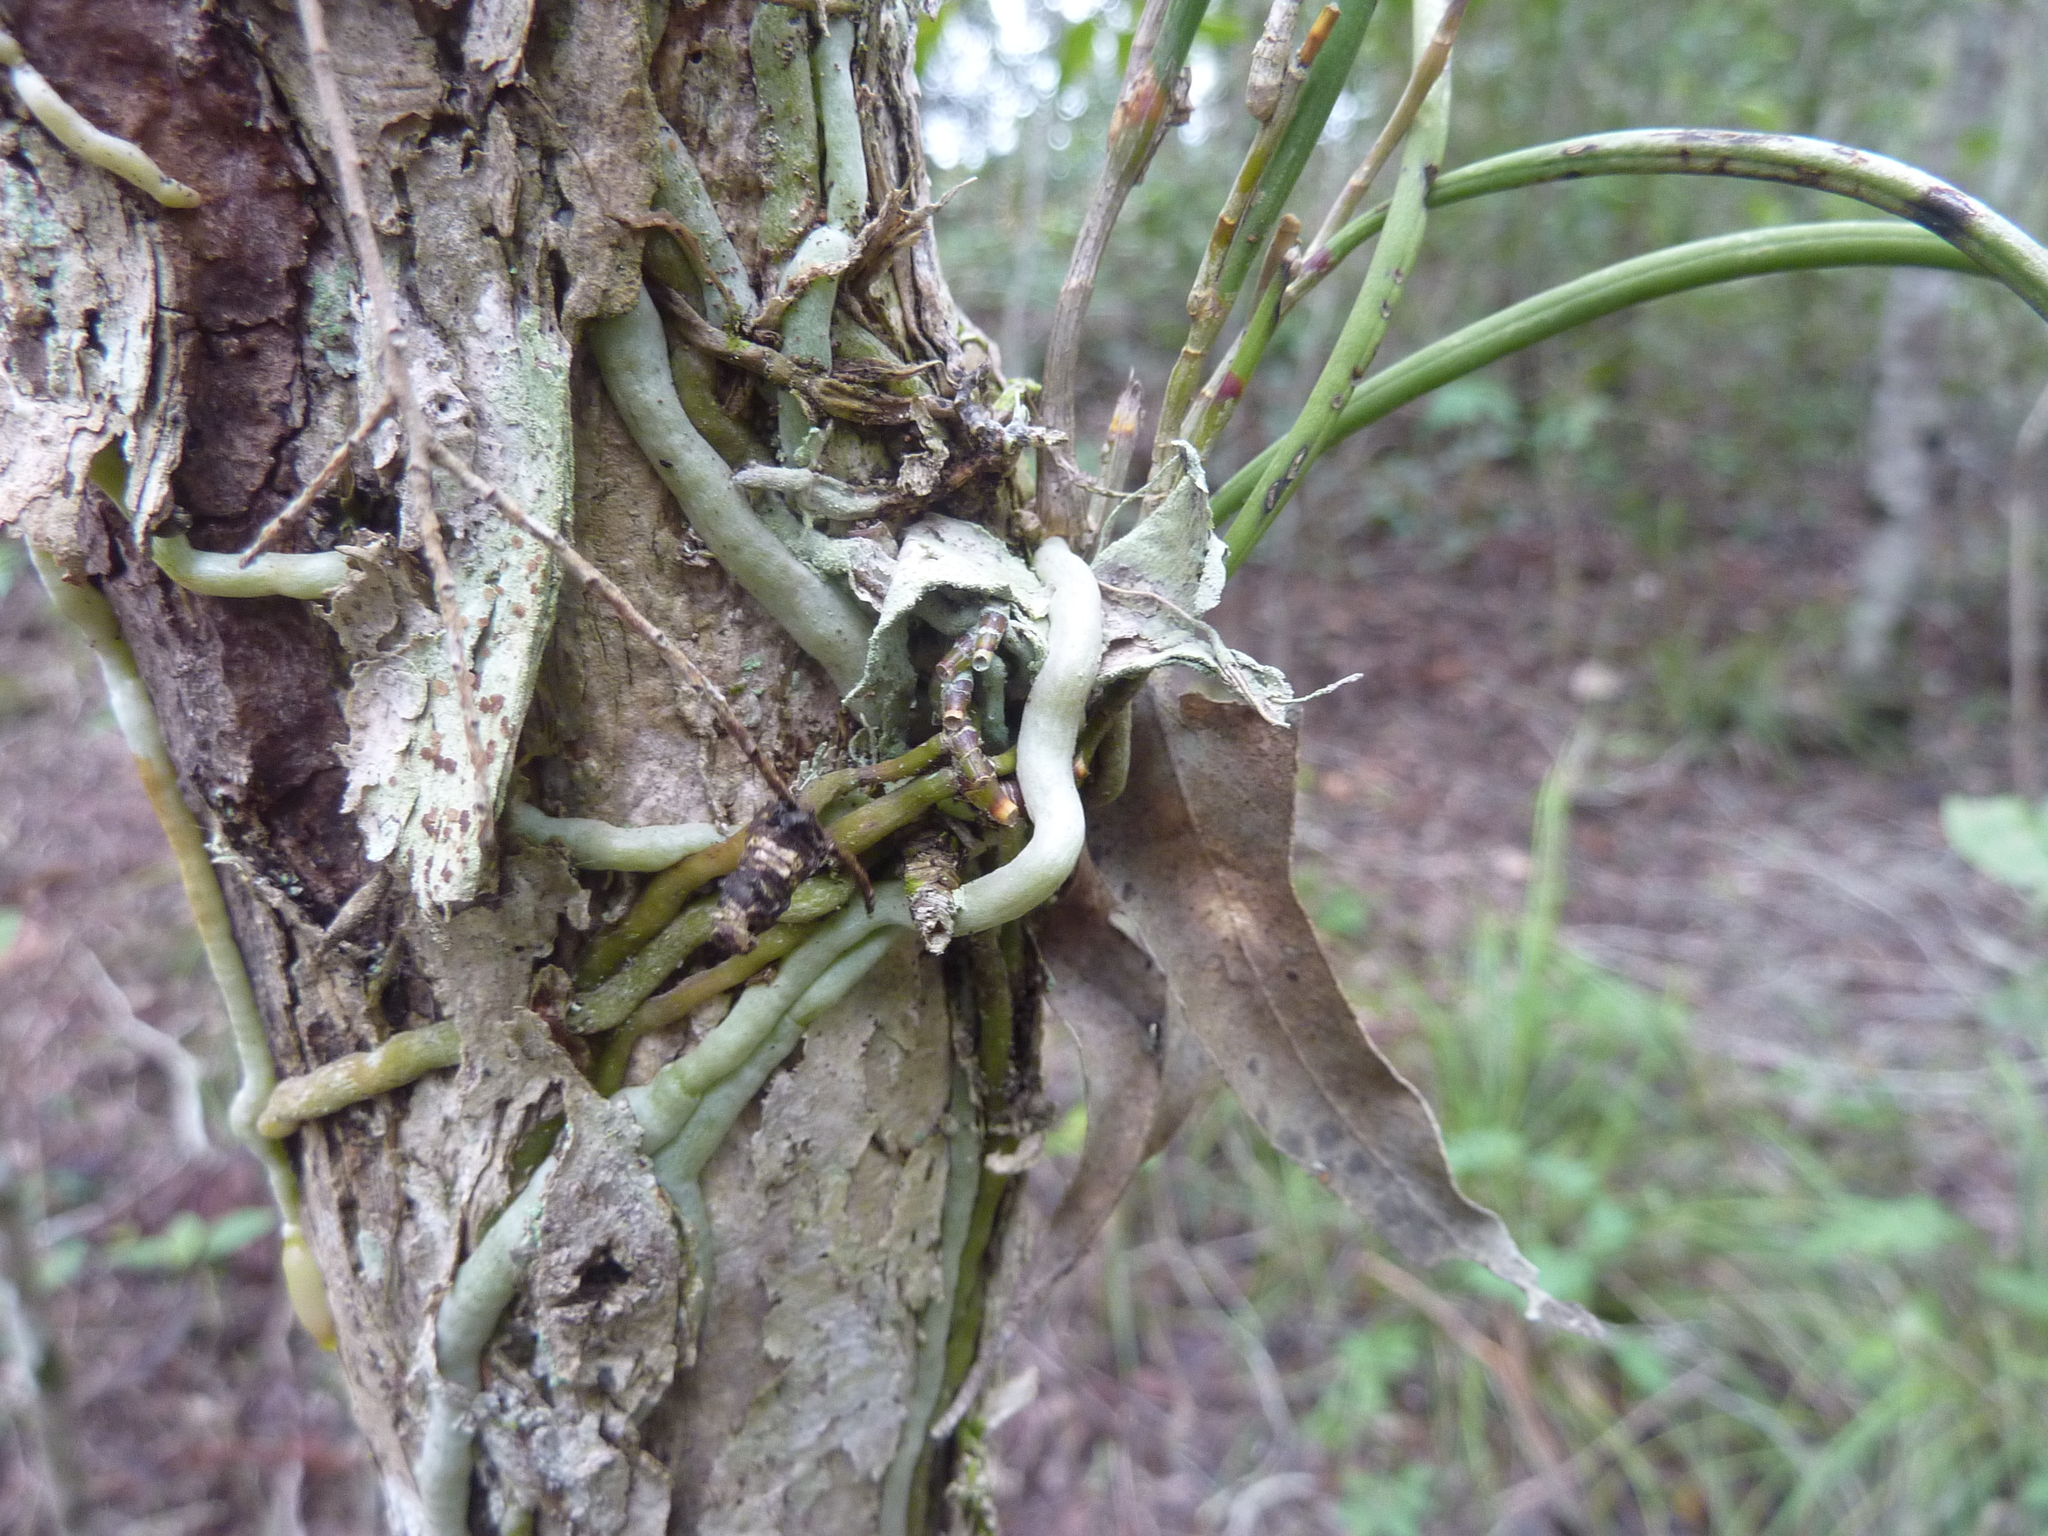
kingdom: Plantae
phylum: Tracheophyta
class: Liliopsida
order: Asparagales
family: Orchidaceae
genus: Dendrobium
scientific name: Dendrobium bowmanii
